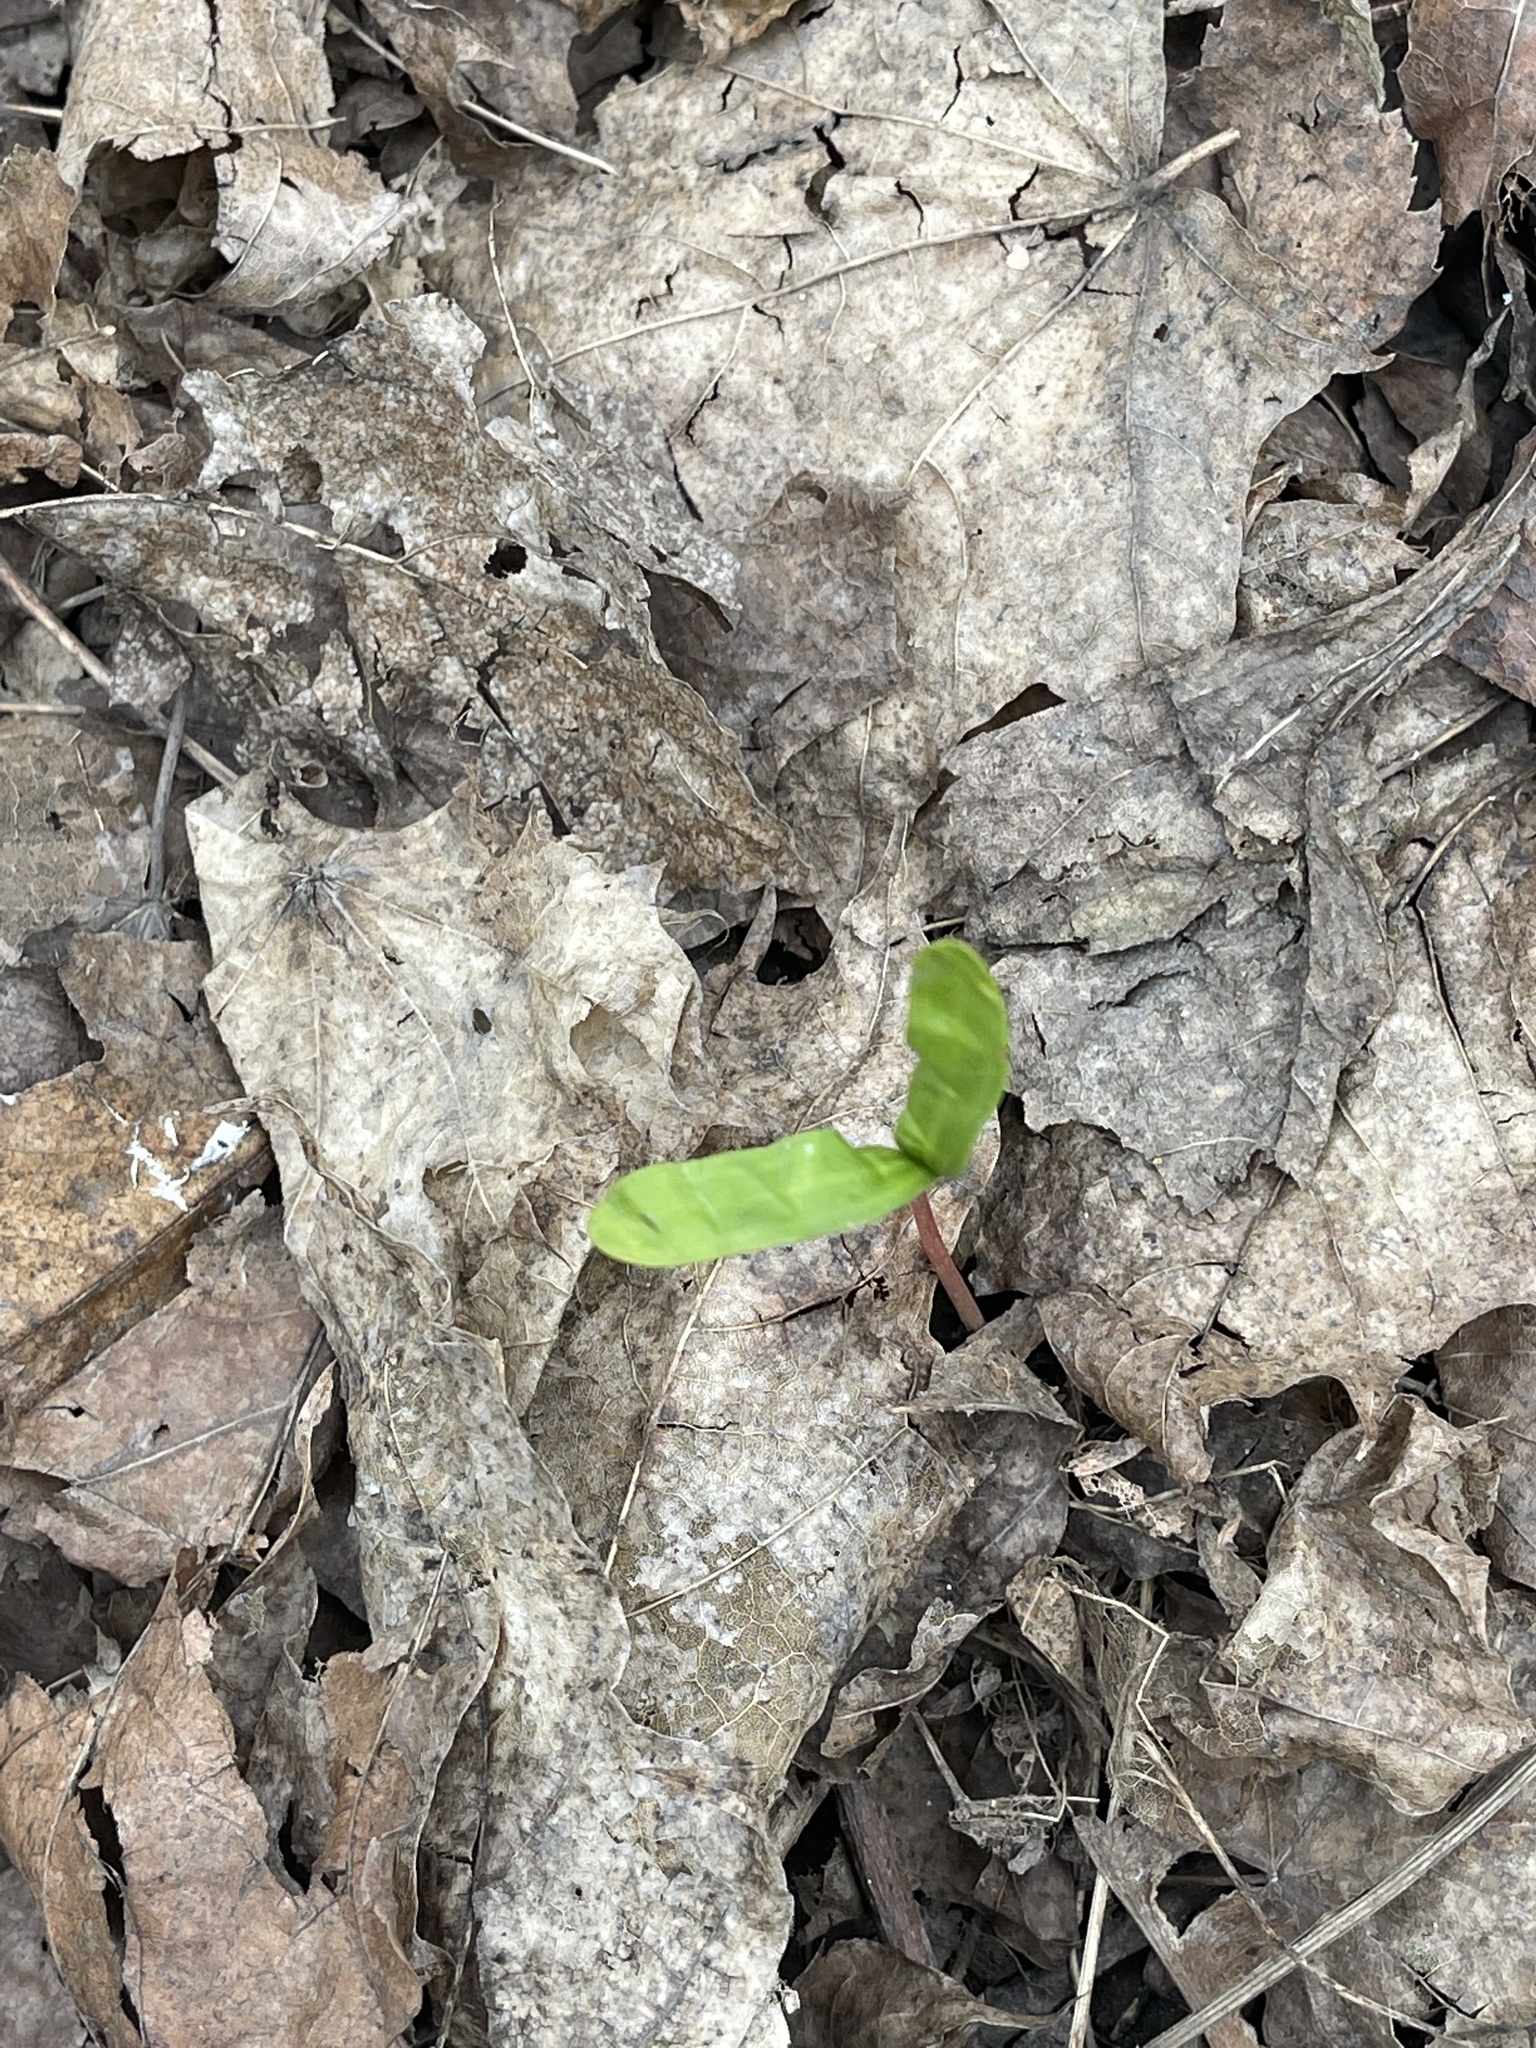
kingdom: Plantae
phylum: Tracheophyta
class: Magnoliopsida
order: Sapindales
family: Sapindaceae
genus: Acer
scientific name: Acer platanoides
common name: Norway maple
